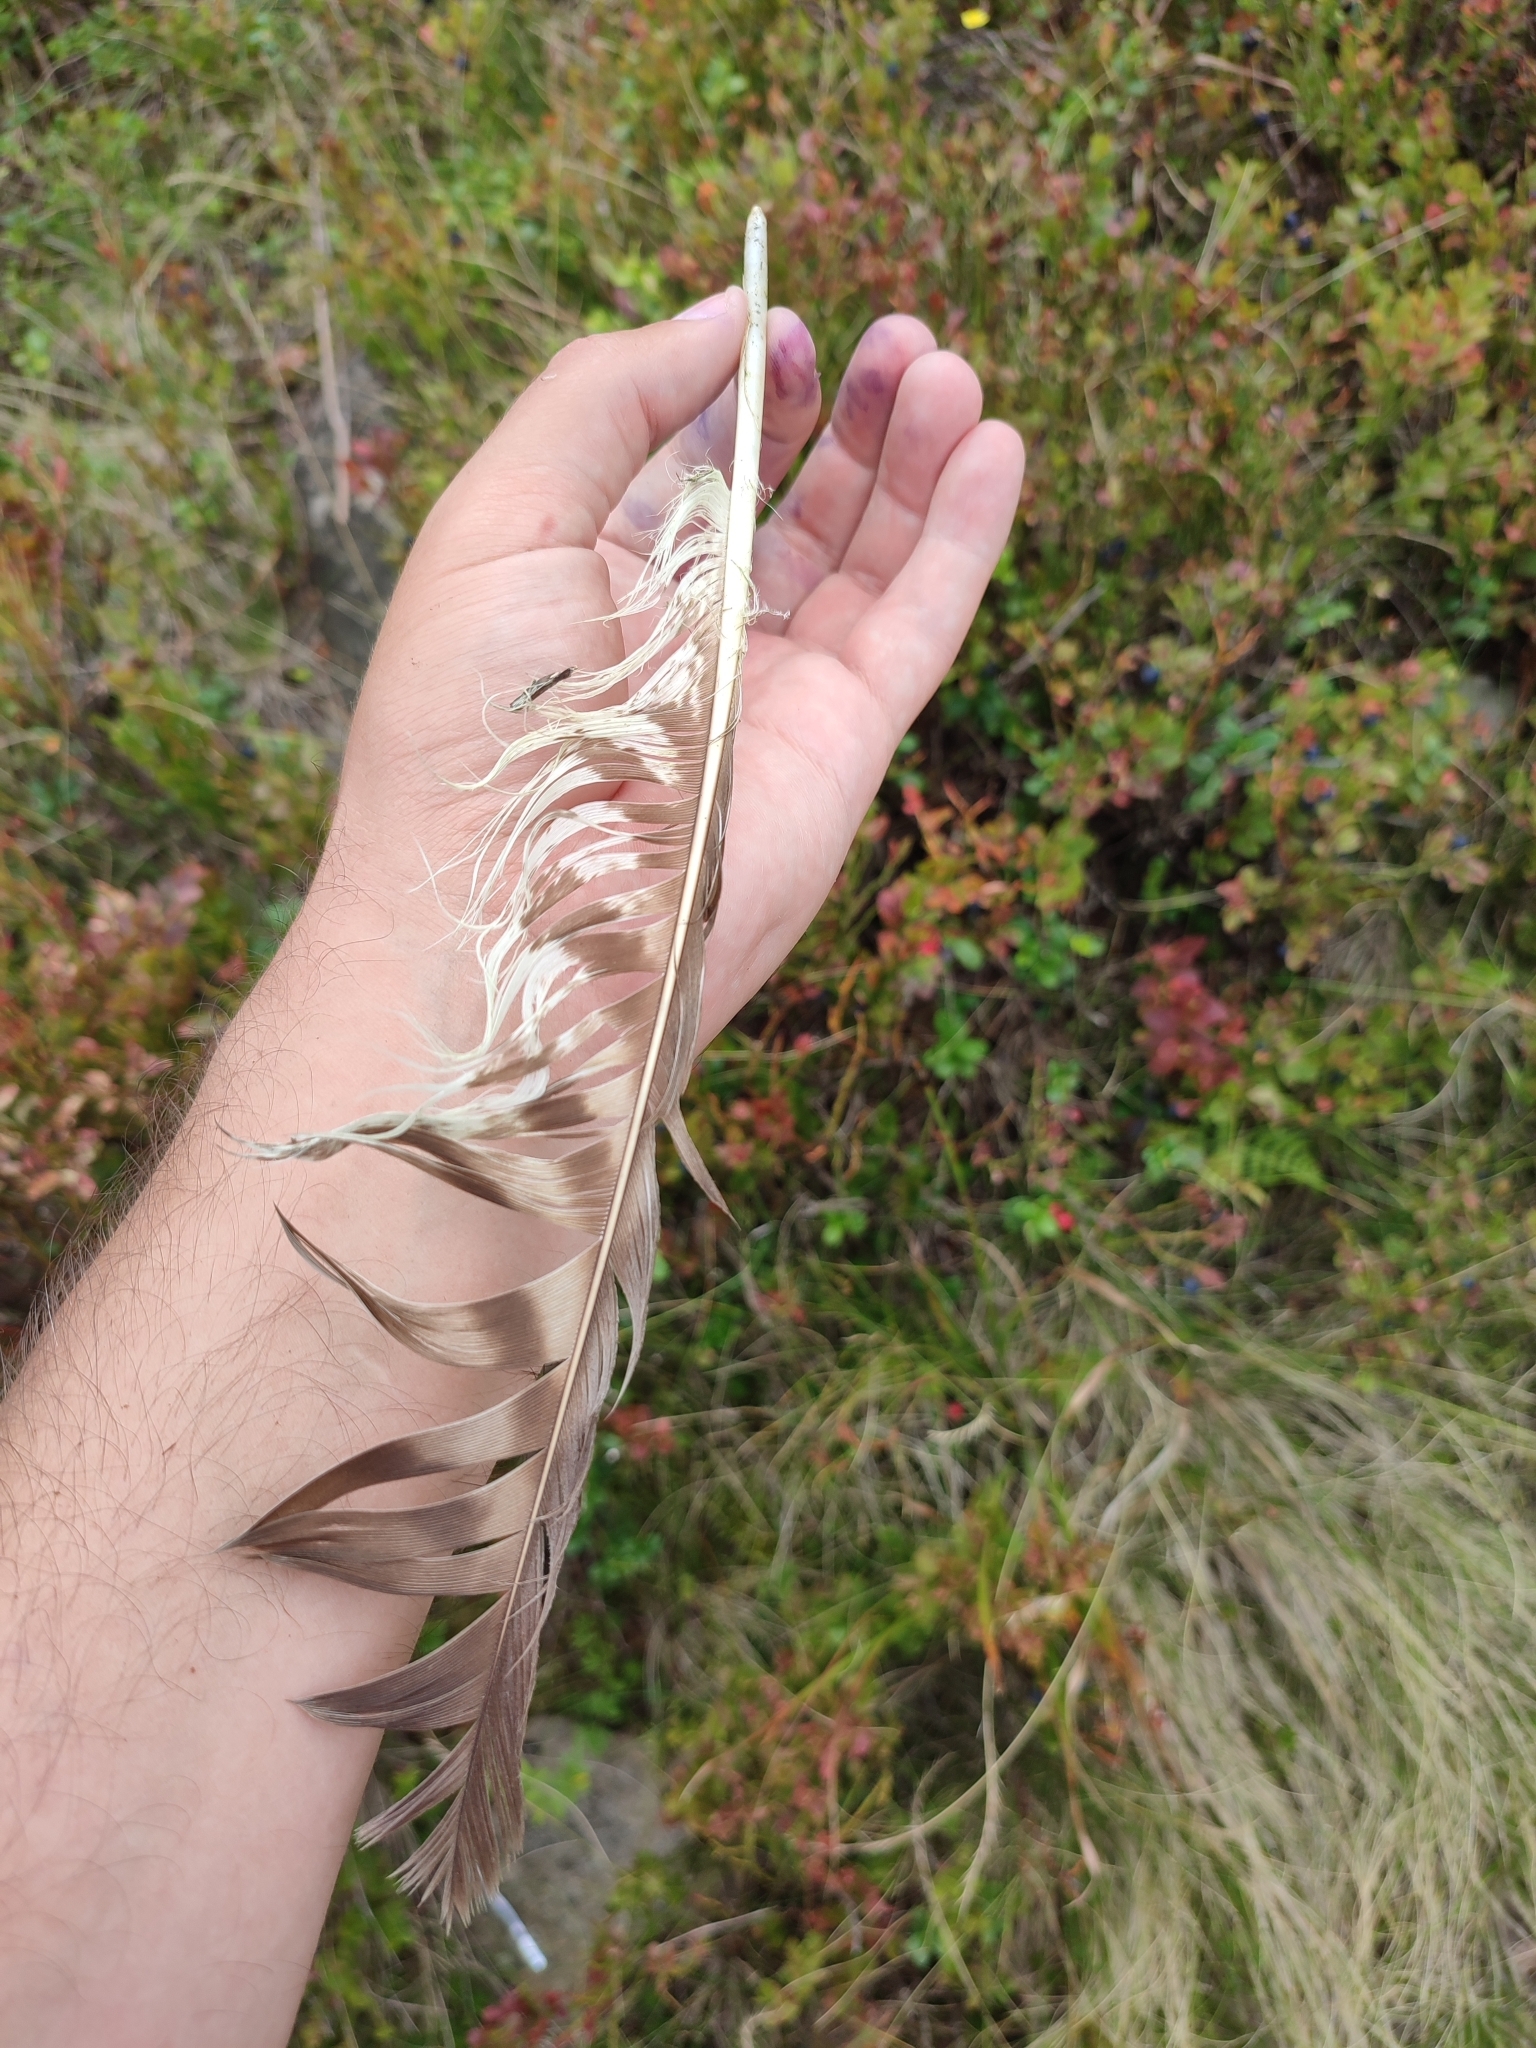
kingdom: Animalia
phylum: Chordata
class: Aves
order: Accipitriformes
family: Accipitridae
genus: Buteo
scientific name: Buteo buteo
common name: Common buzzard
